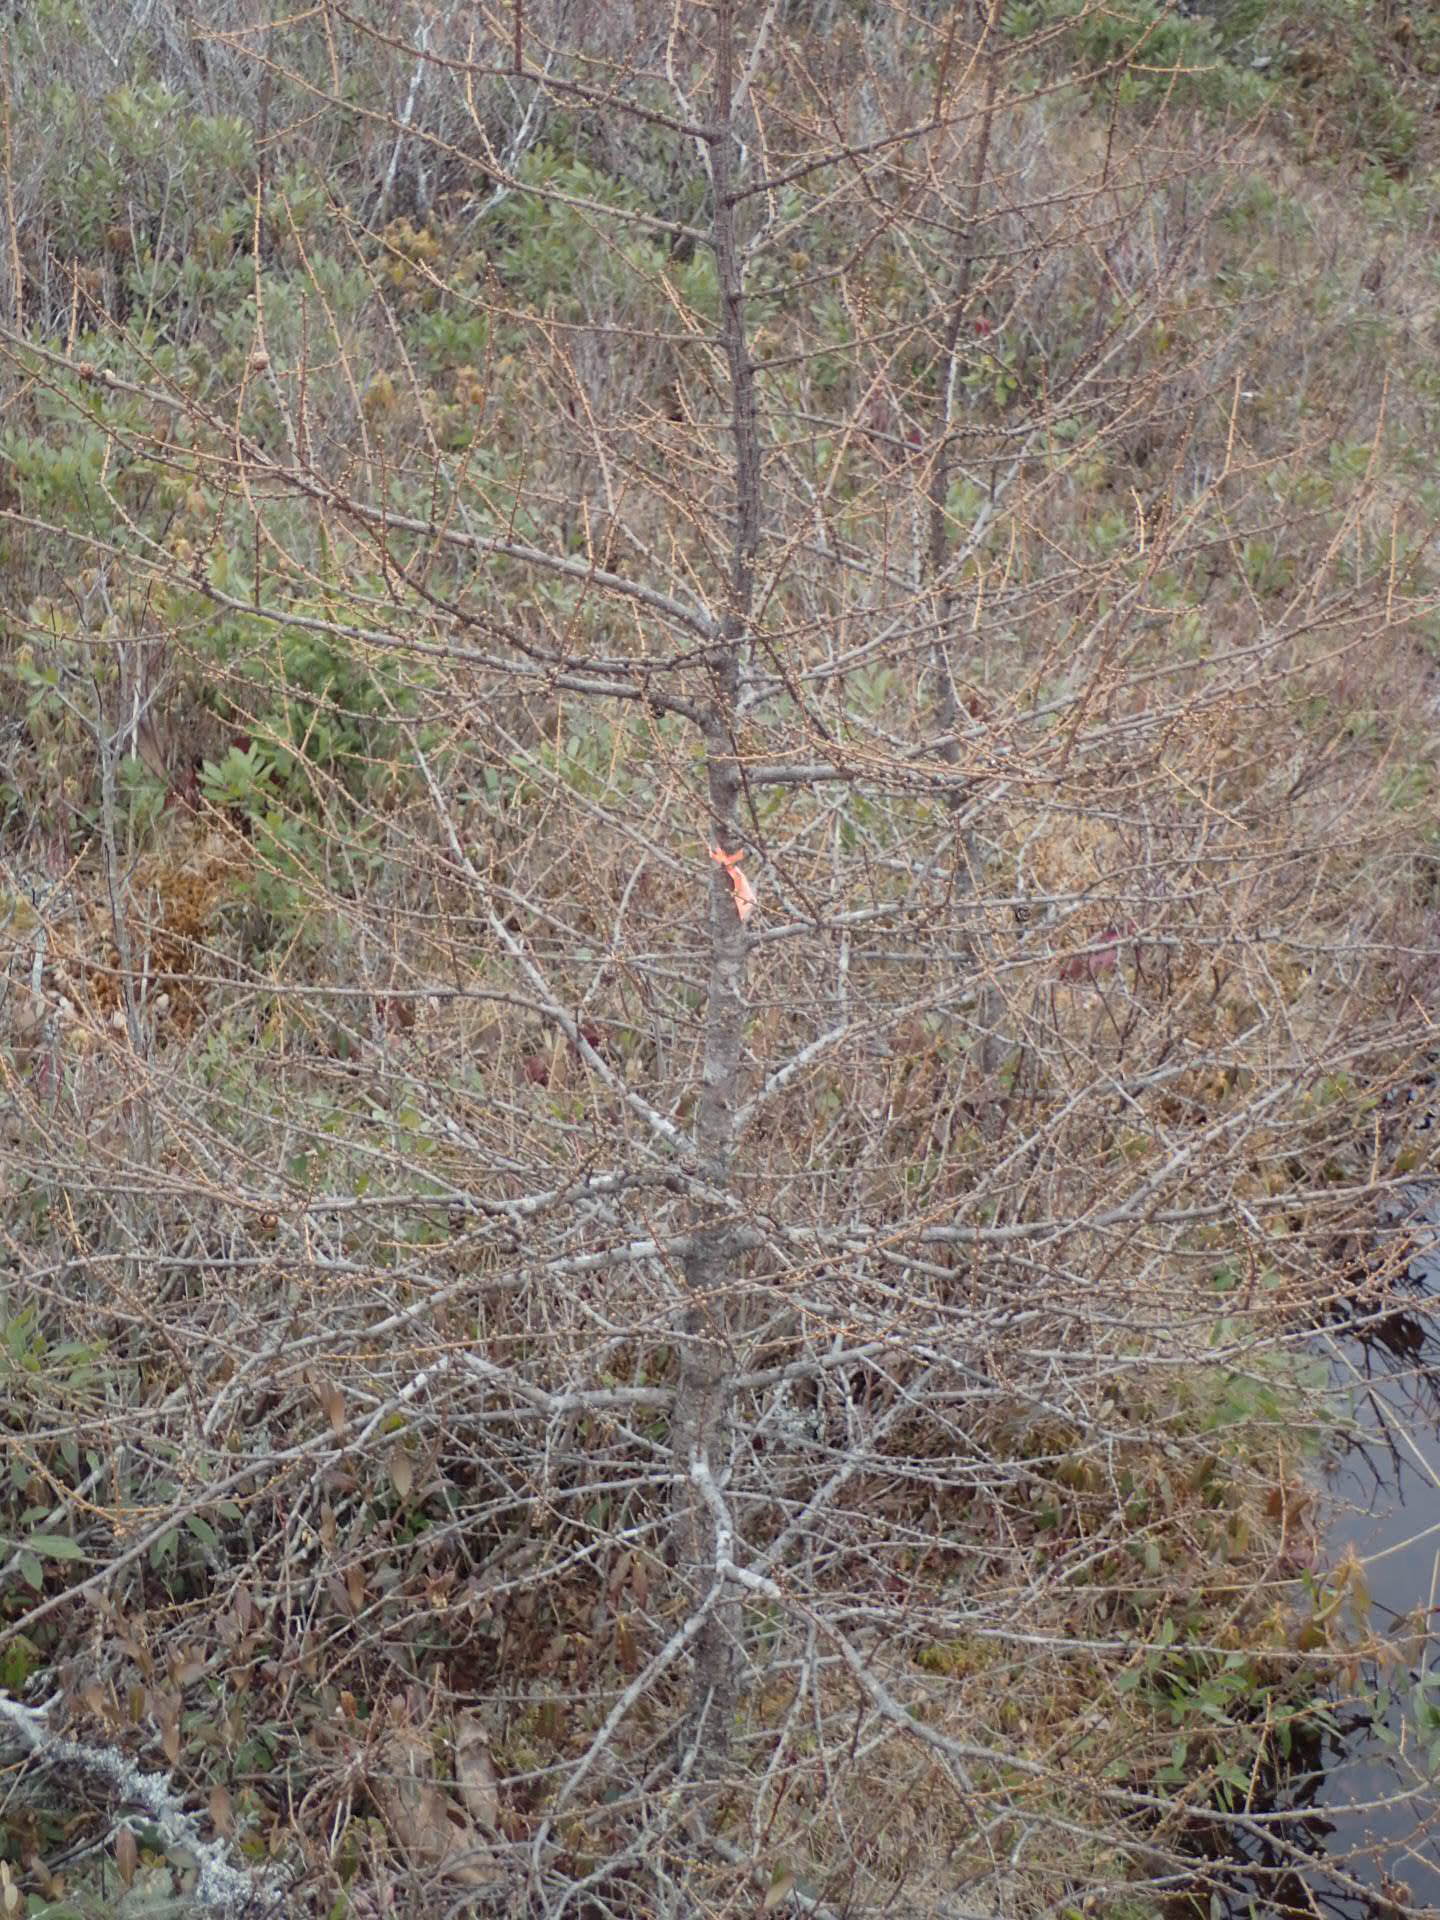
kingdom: Plantae
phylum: Tracheophyta
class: Pinopsida
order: Pinales
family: Pinaceae
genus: Larix
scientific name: Larix laricina
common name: American larch
